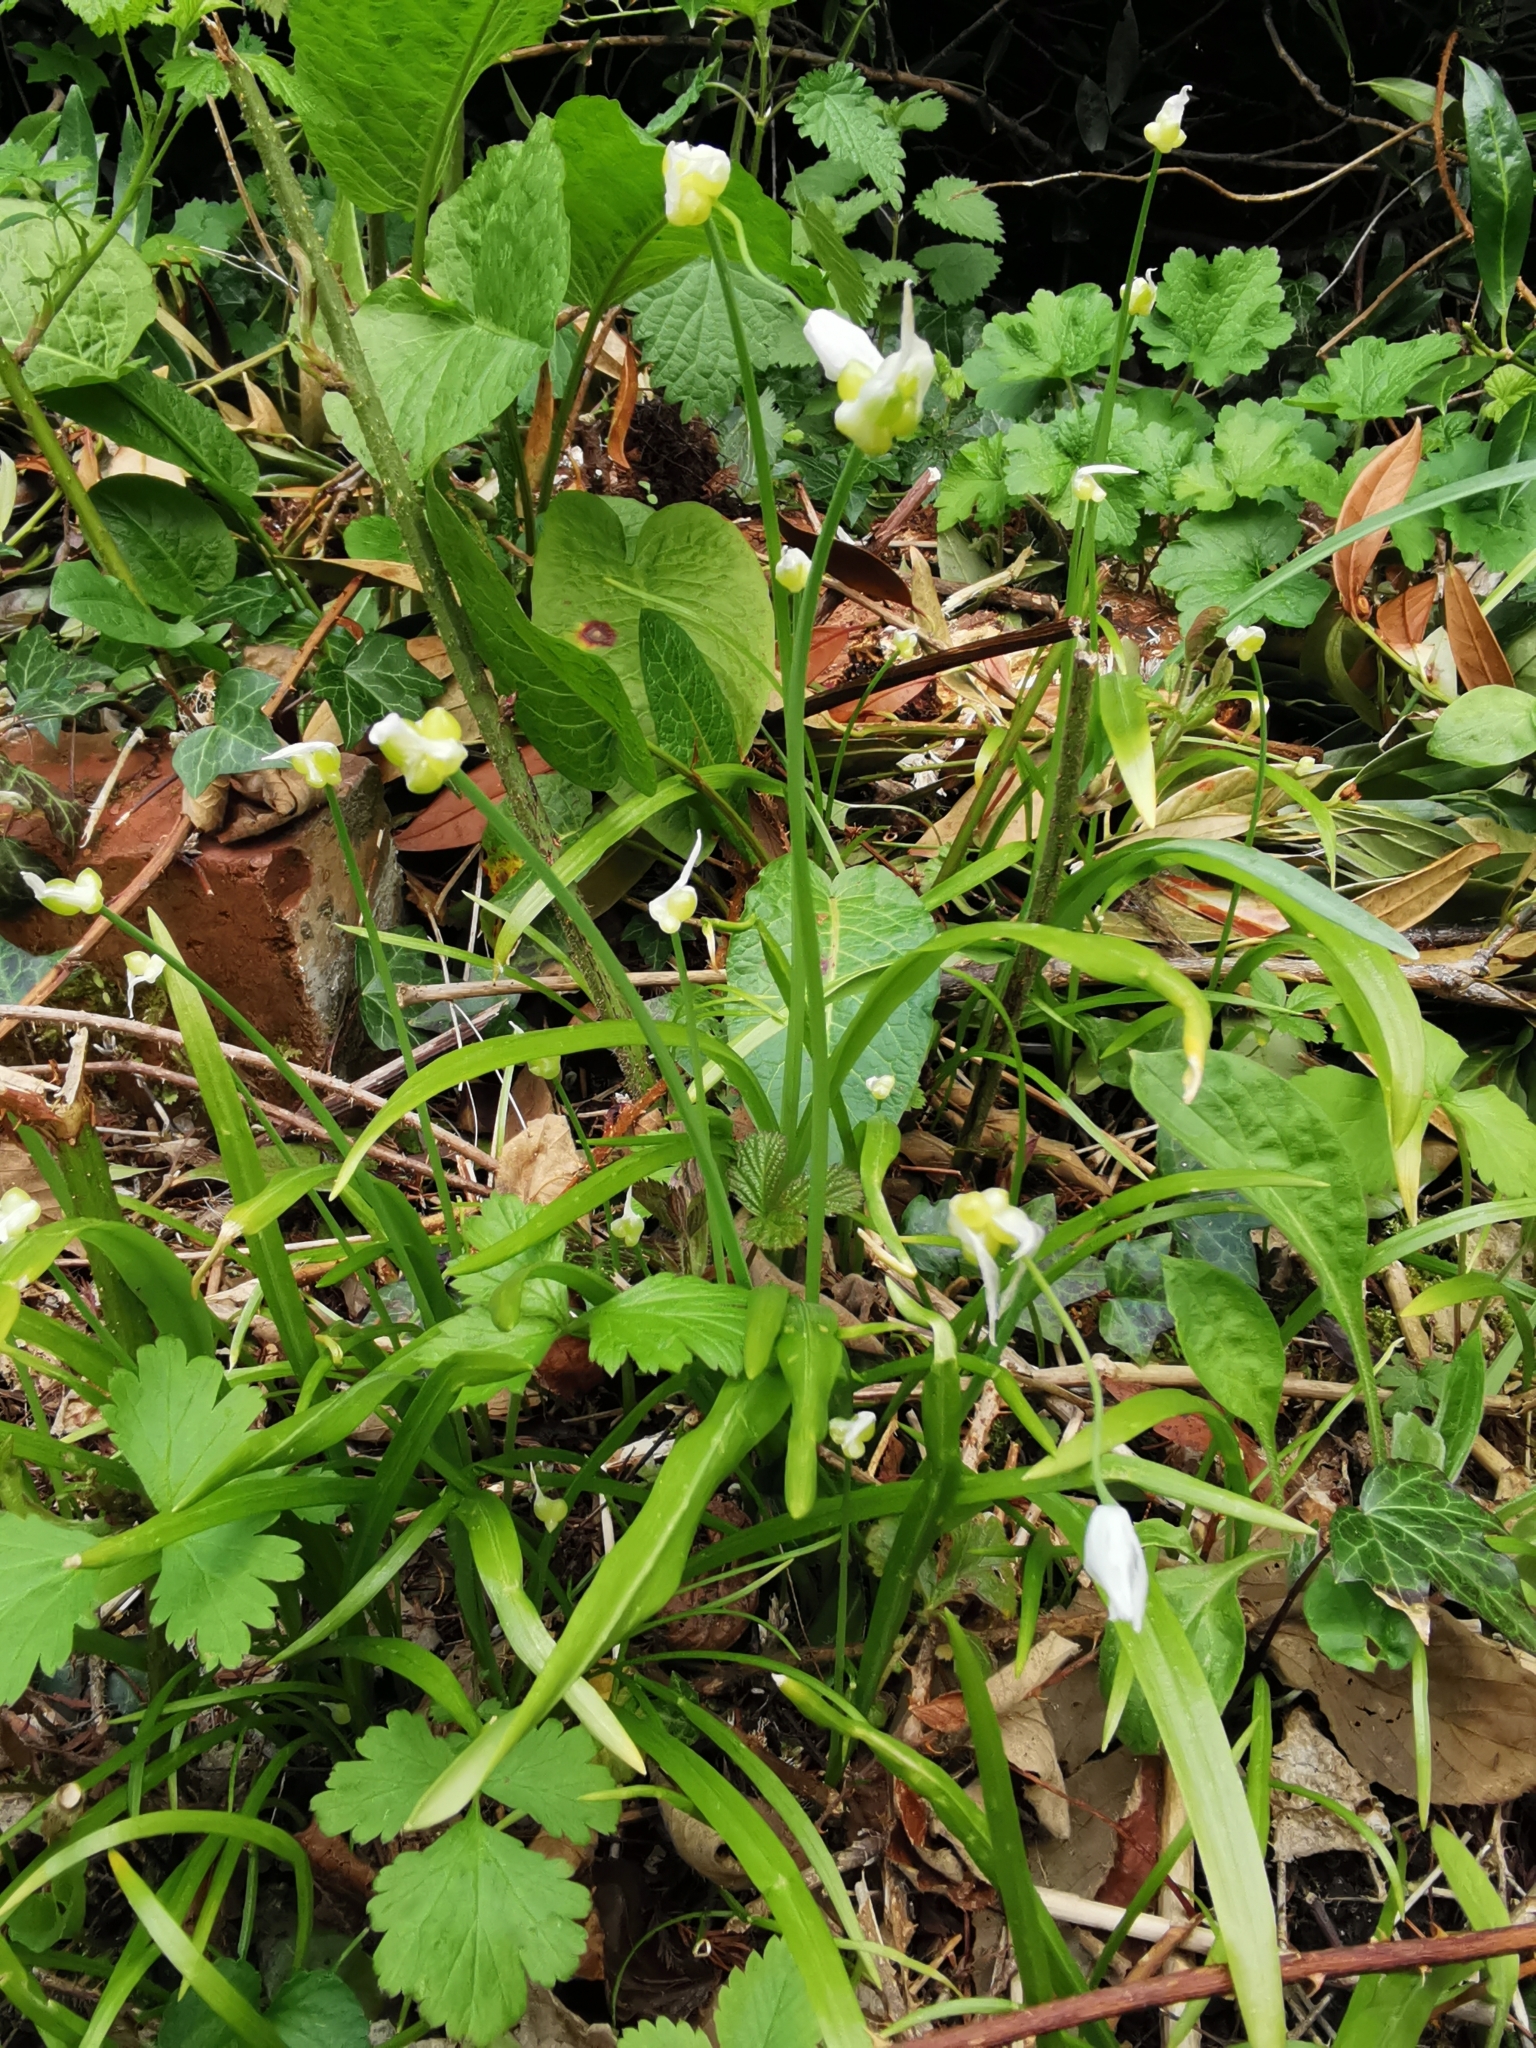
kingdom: Plantae
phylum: Tracheophyta
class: Liliopsida
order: Asparagales
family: Amaryllidaceae
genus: Allium
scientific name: Allium paradoxum
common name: Few-flowered garlic
